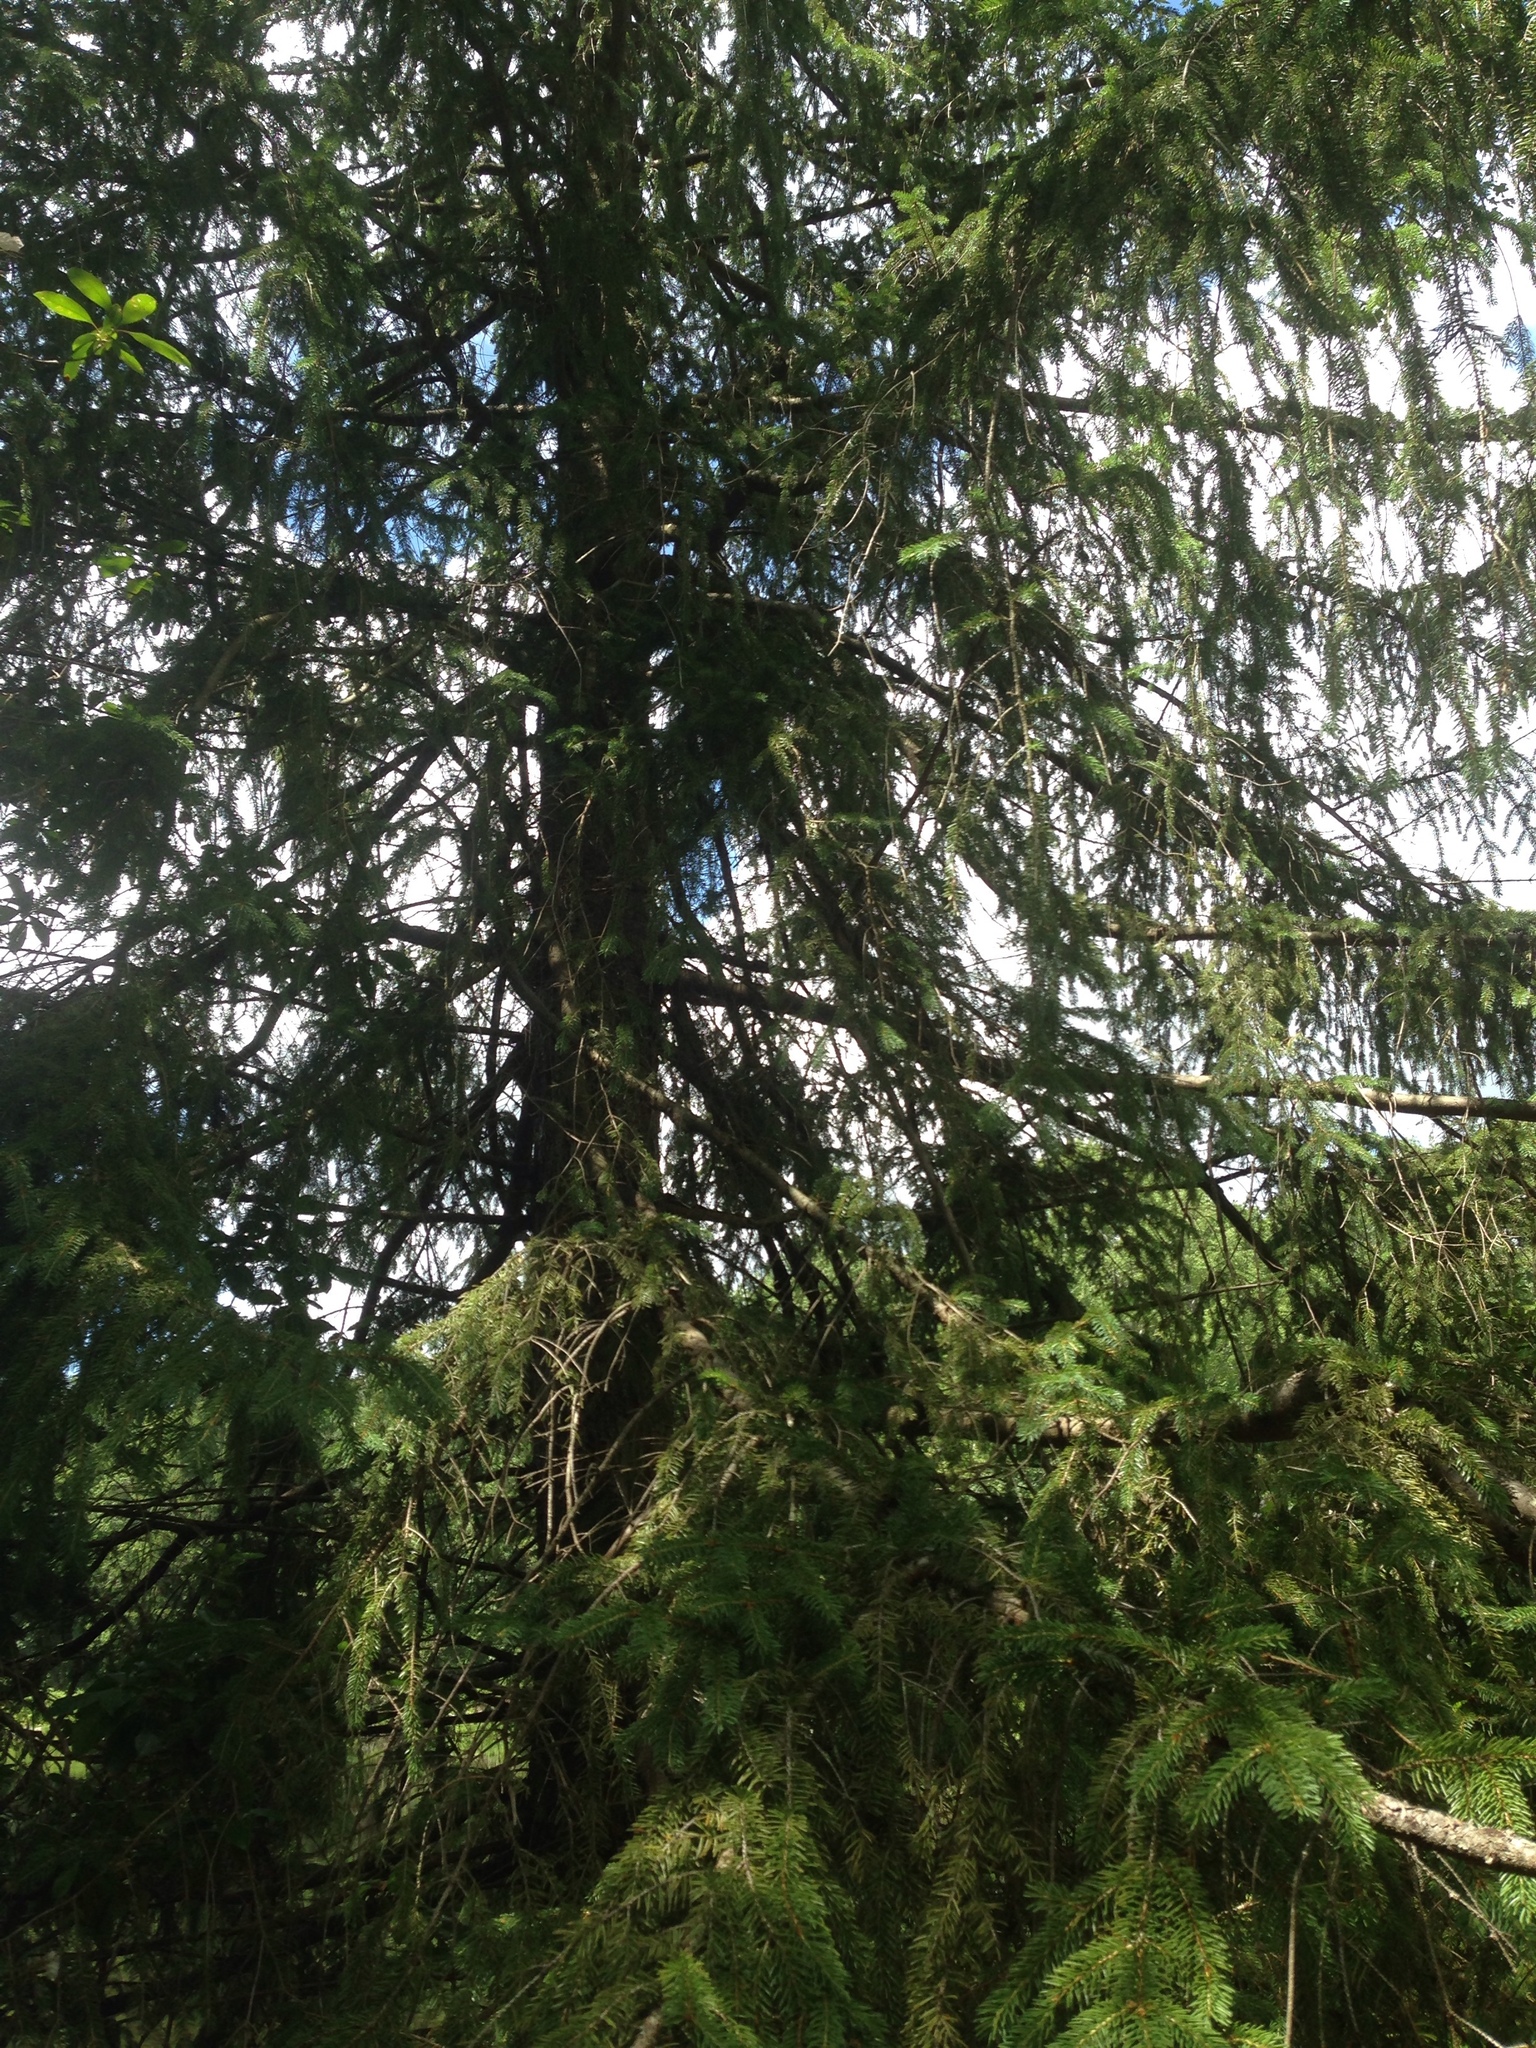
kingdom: Plantae
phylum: Tracheophyta
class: Pinopsida
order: Pinales
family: Pinaceae
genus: Picea
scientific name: Picea abies
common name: Norway spruce
